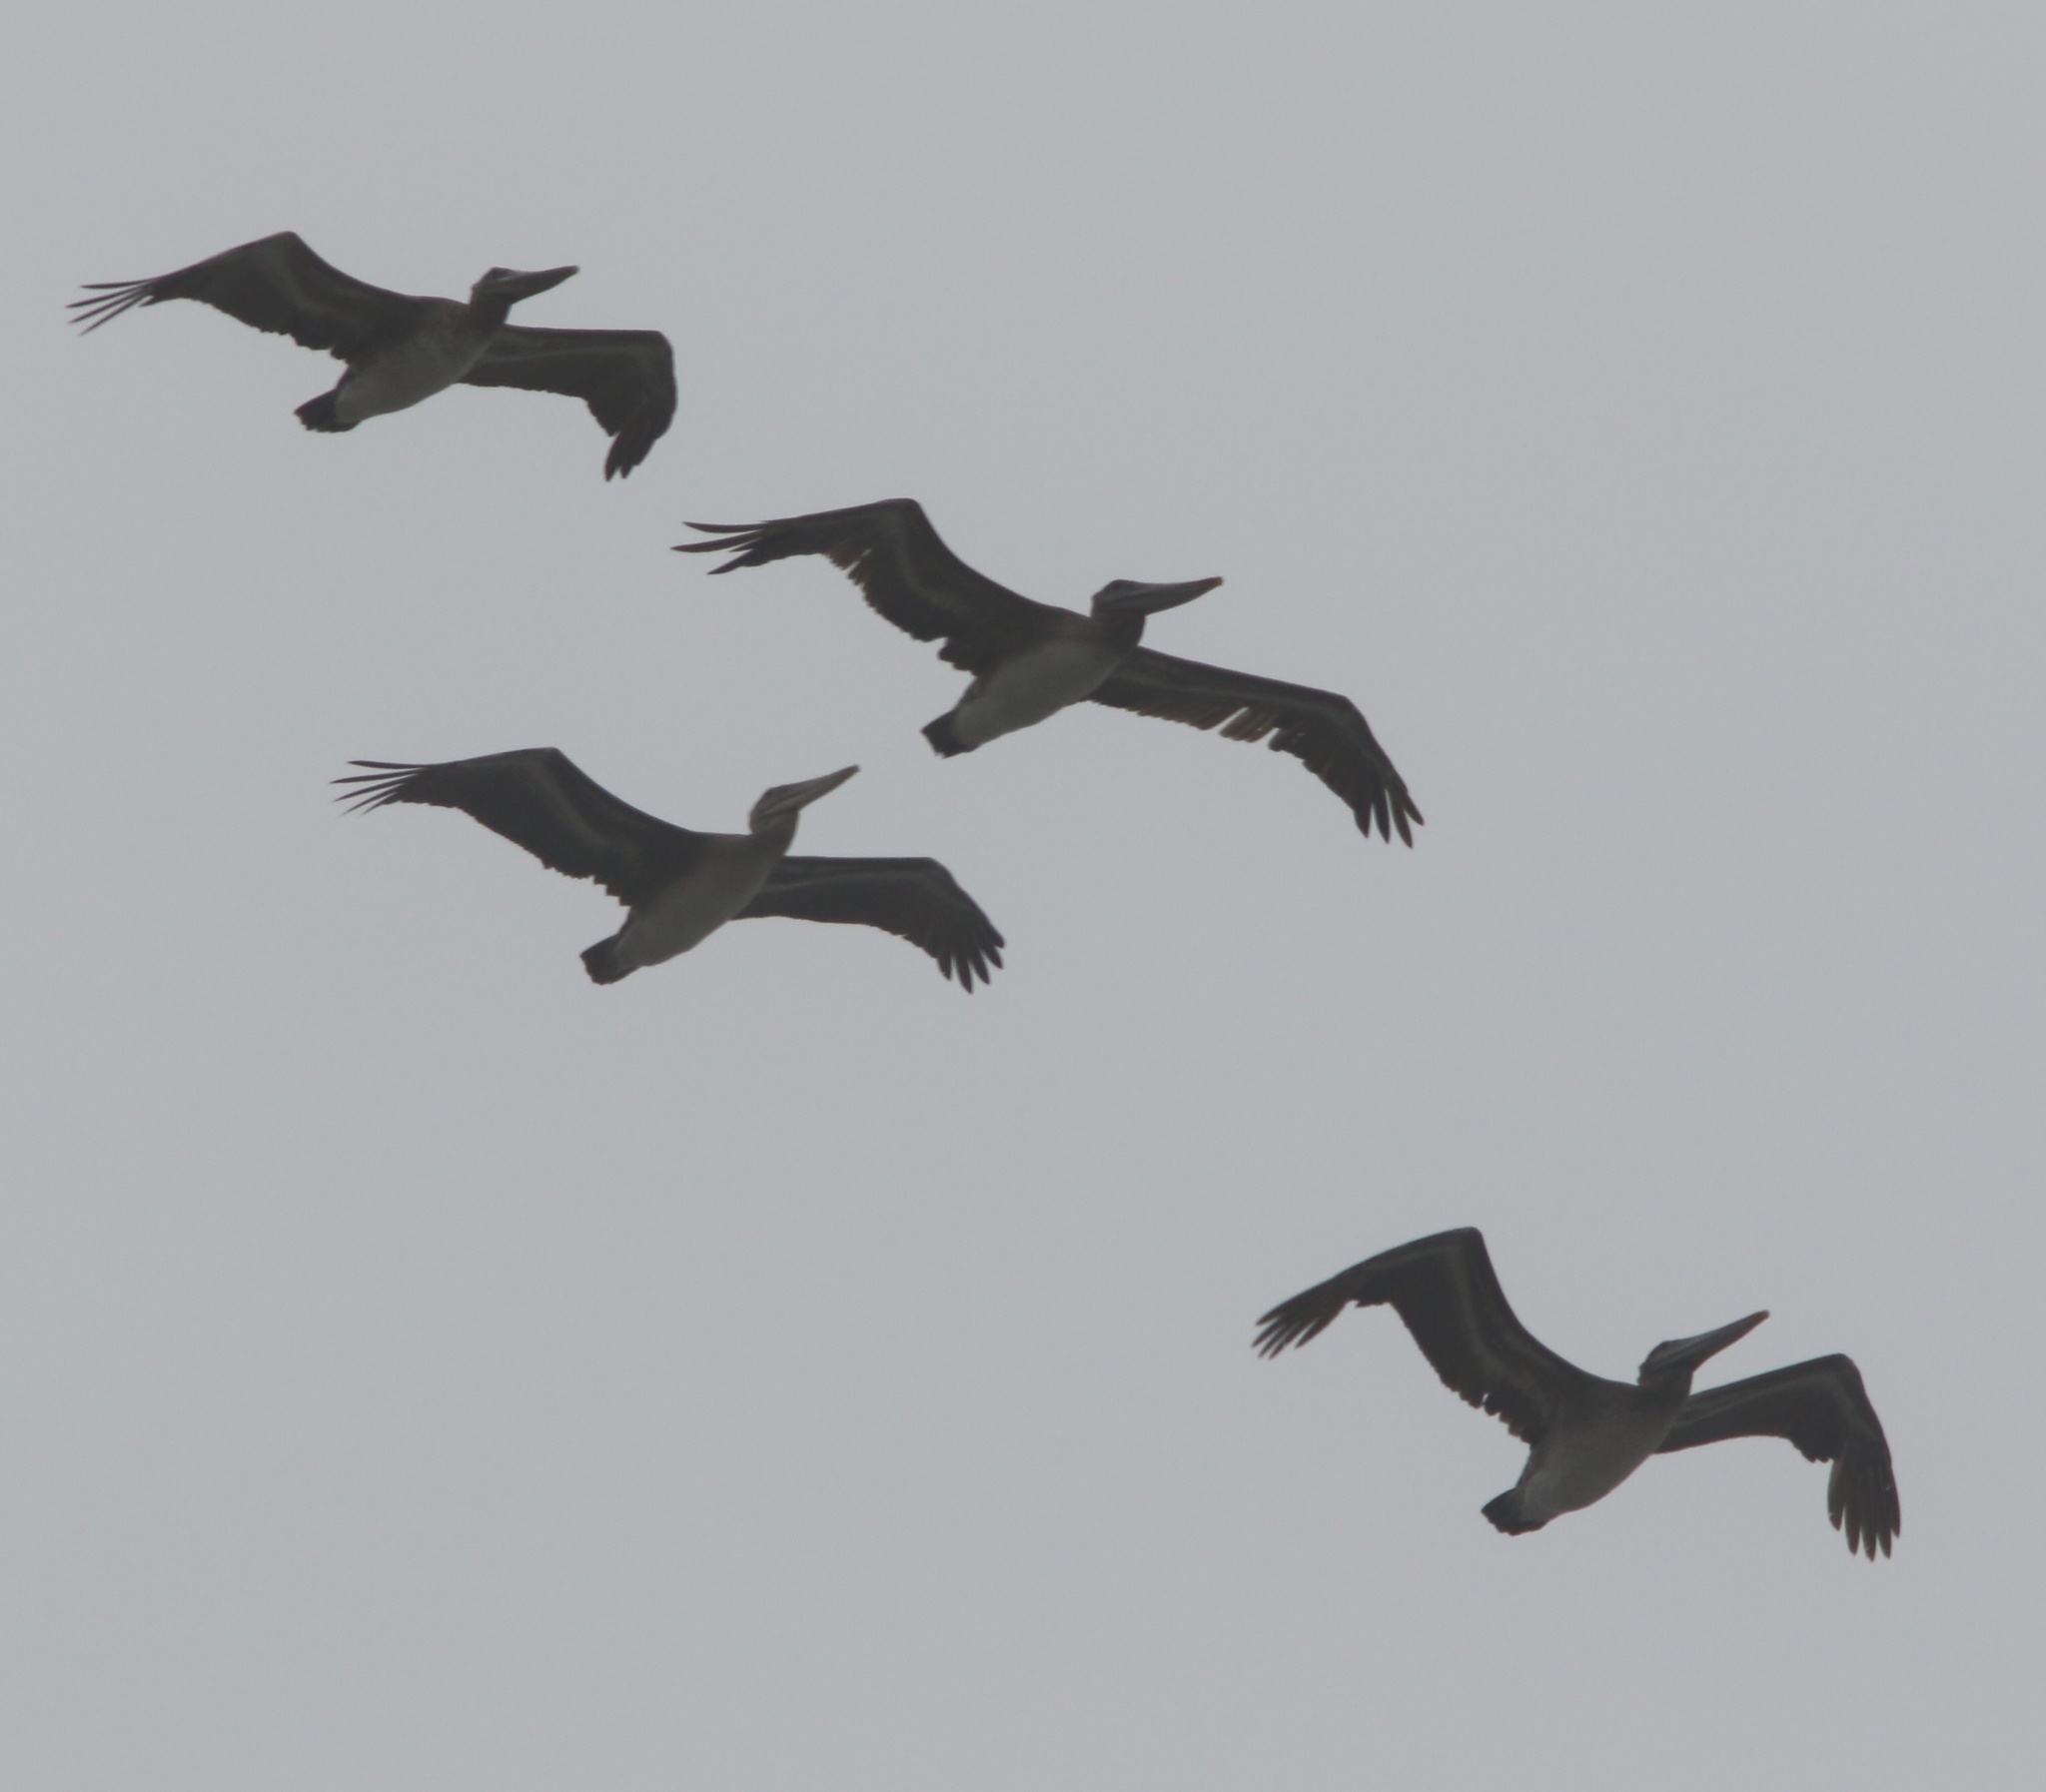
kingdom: Animalia
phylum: Chordata
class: Aves
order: Pelecaniformes
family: Pelecanidae
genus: Pelecanus
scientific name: Pelecanus occidentalis
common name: Brown pelican
